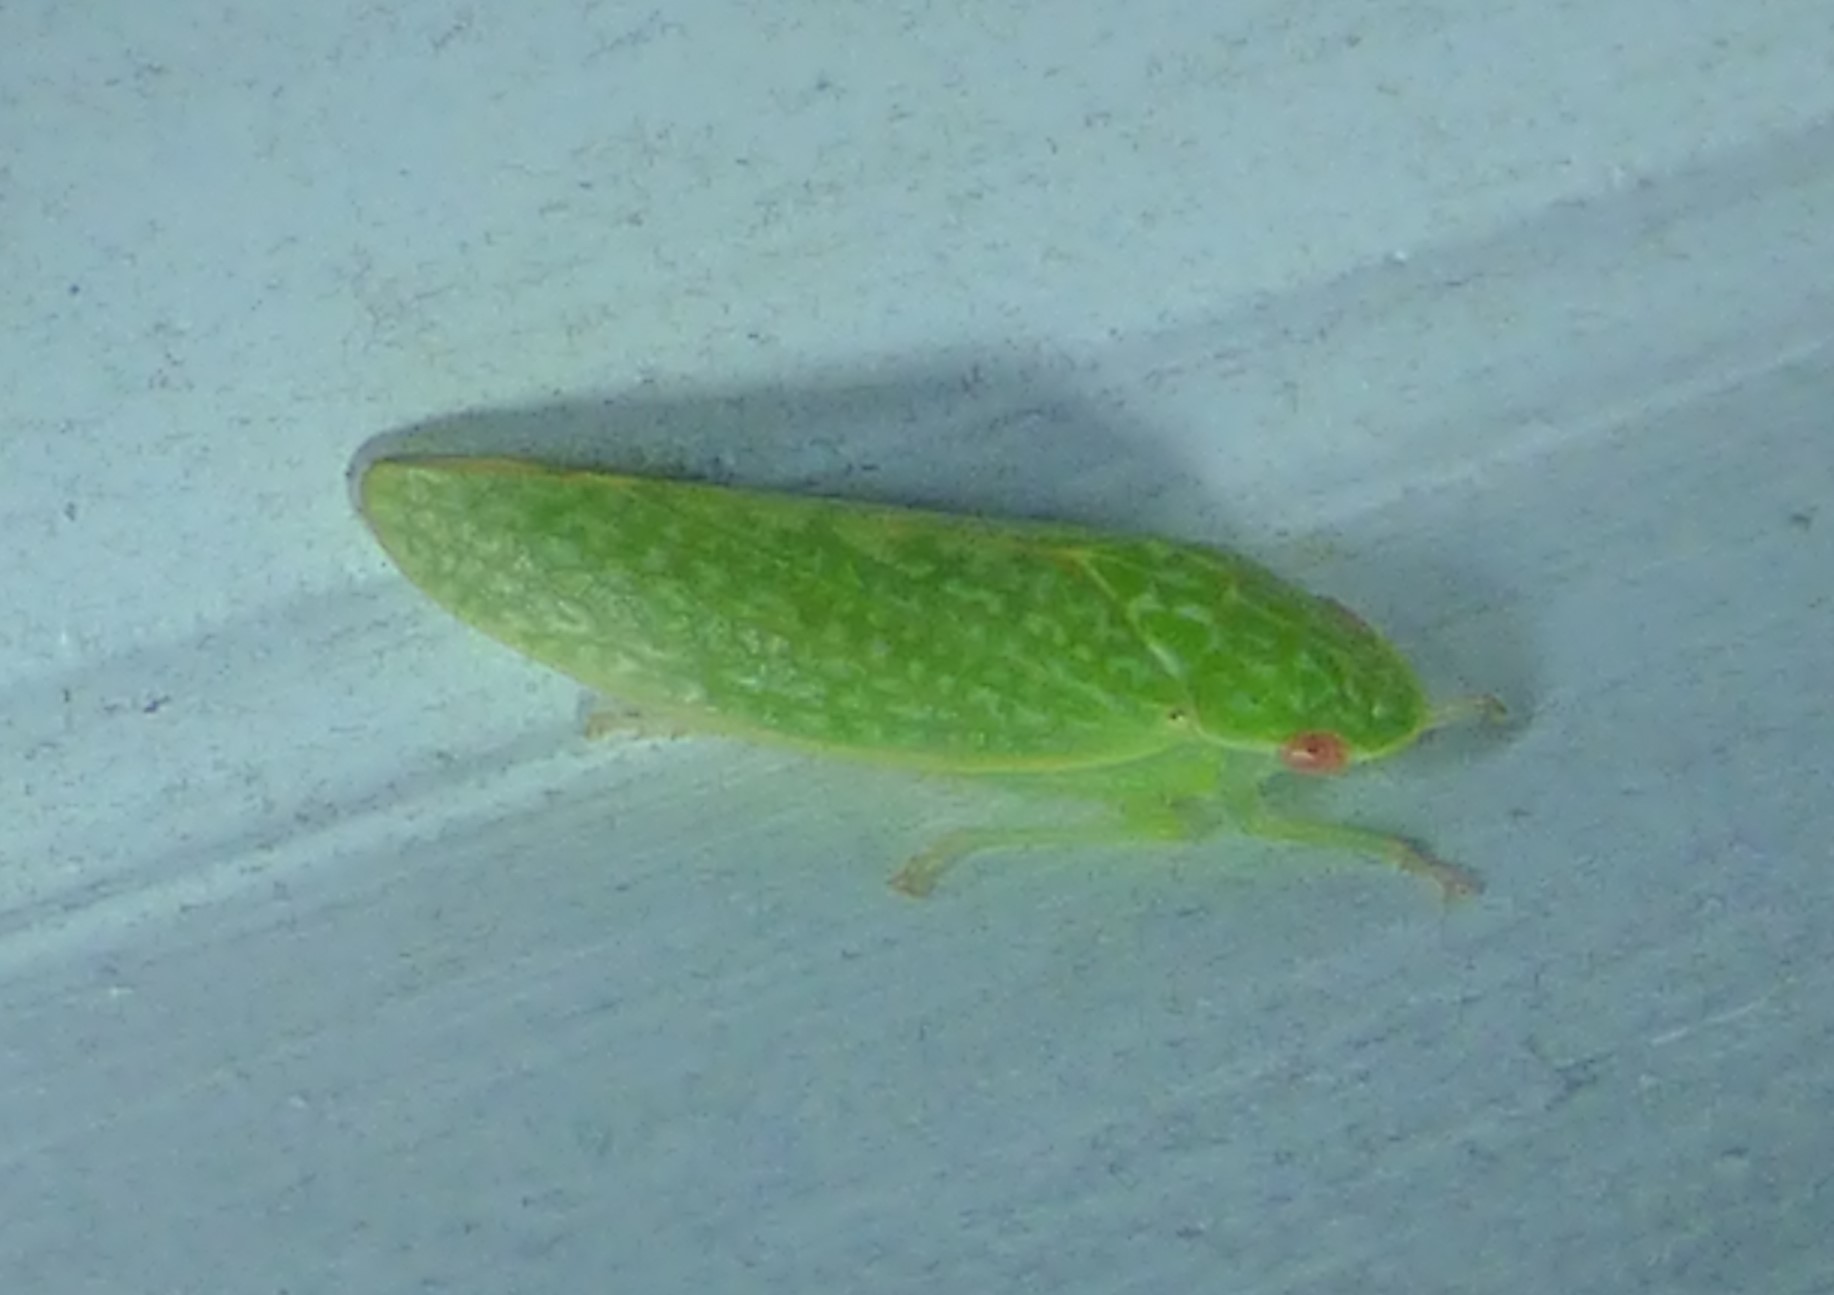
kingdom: Animalia
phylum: Arthropoda
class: Insecta
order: Hemiptera
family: Cicadellidae
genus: Rugosana
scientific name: Rugosana querci
